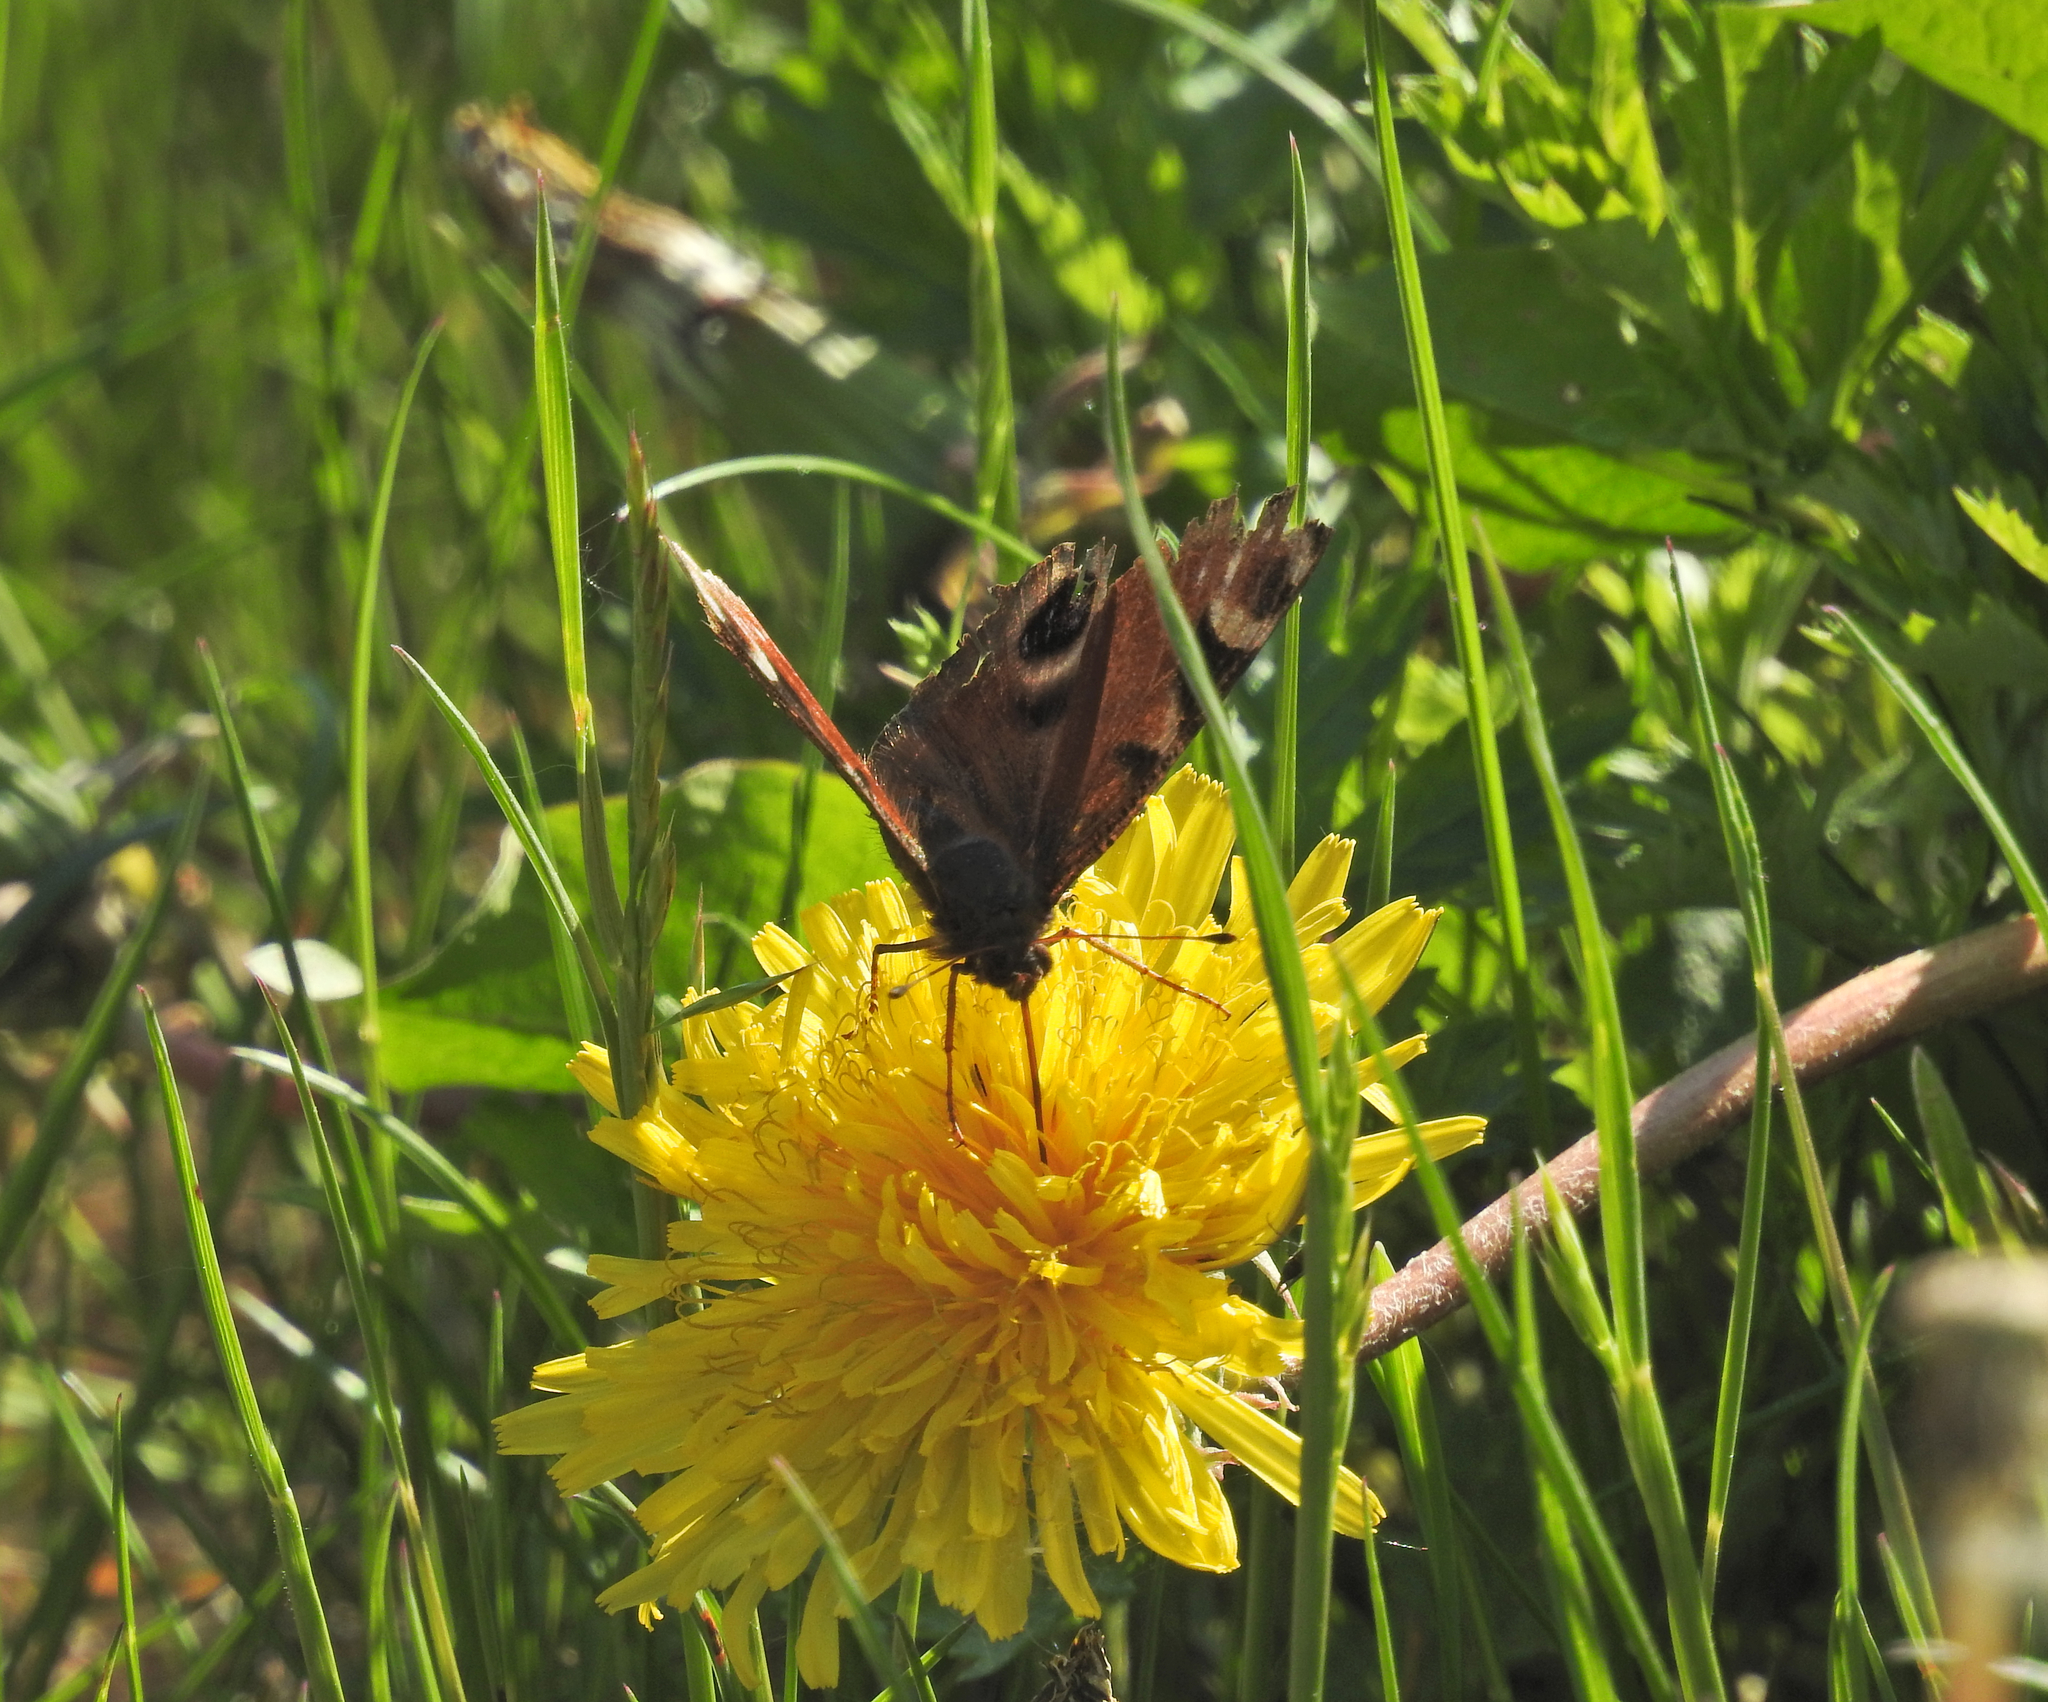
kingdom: Animalia
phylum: Arthropoda
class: Insecta
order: Lepidoptera
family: Nymphalidae
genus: Aglais
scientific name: Aglais io
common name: Peacock
